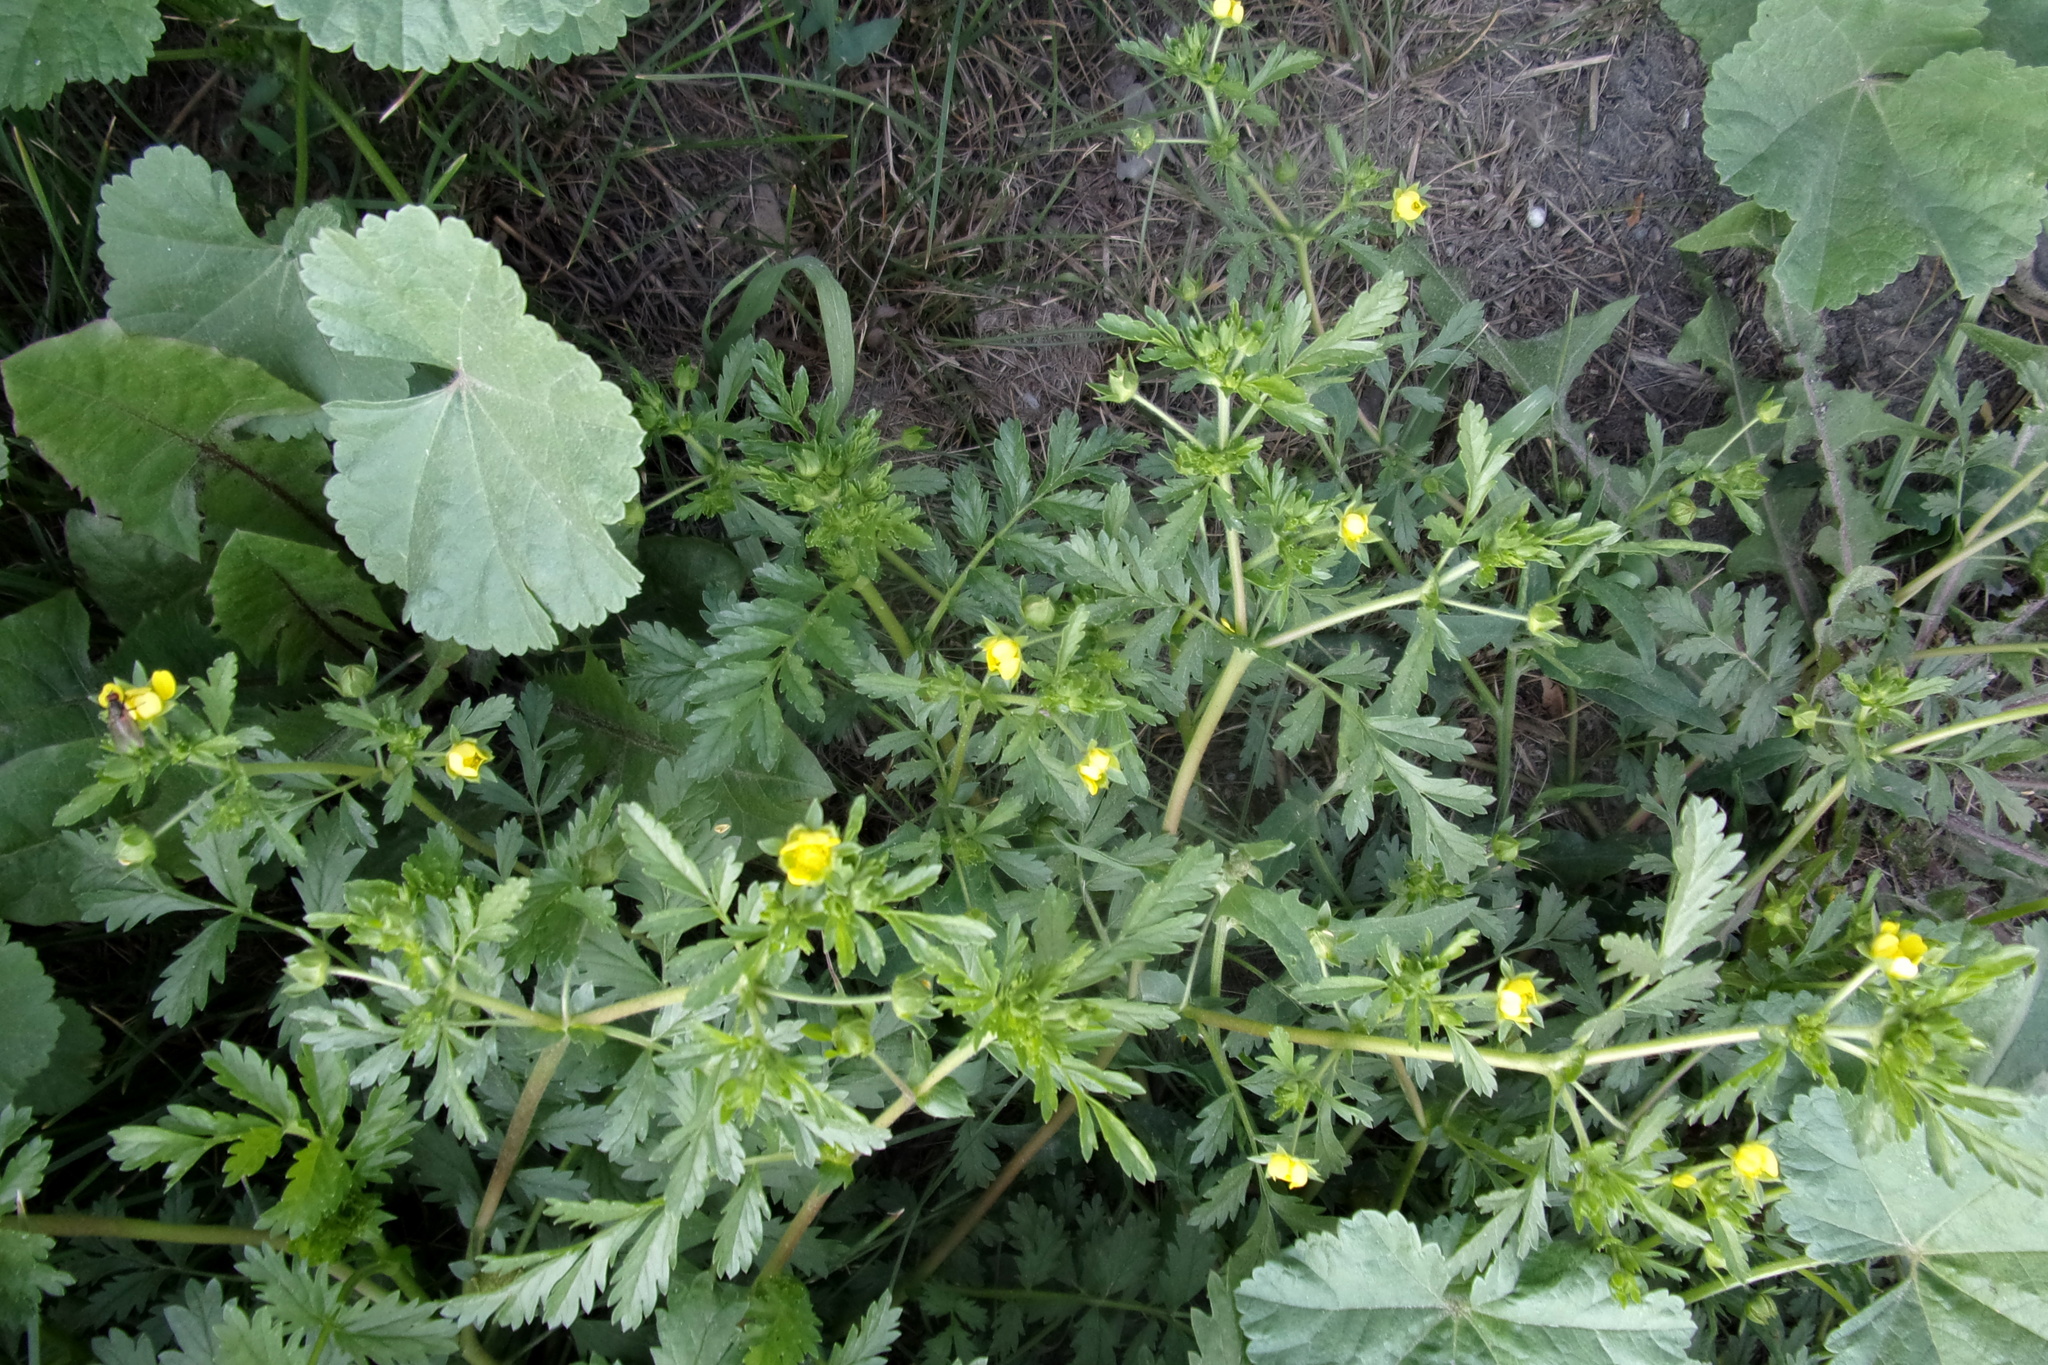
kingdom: Plantae
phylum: Tracheophyta
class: Magnoliopsida
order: Rosales
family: Rosaceae
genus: Potentilla
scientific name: Potentilla supina
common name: Prostrate cinquefoil
